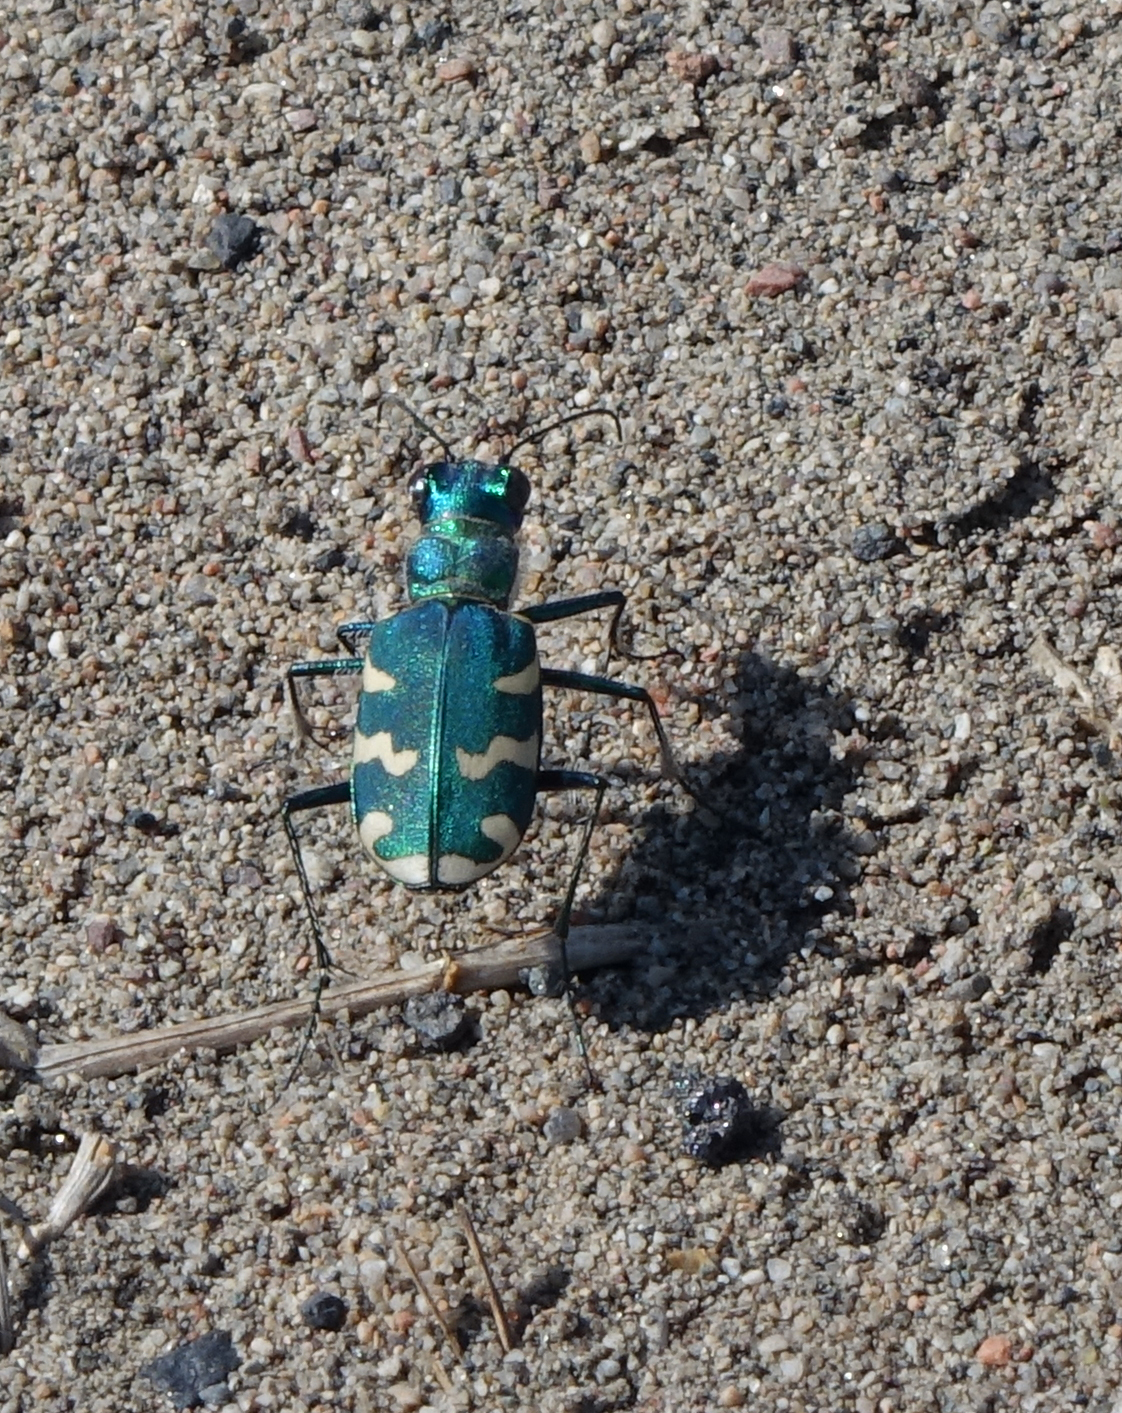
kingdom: Animalia
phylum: Arthropoda
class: Insecta
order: Coleoptera
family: Carabidae
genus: Cicindela
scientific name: Cicindela coerulea
